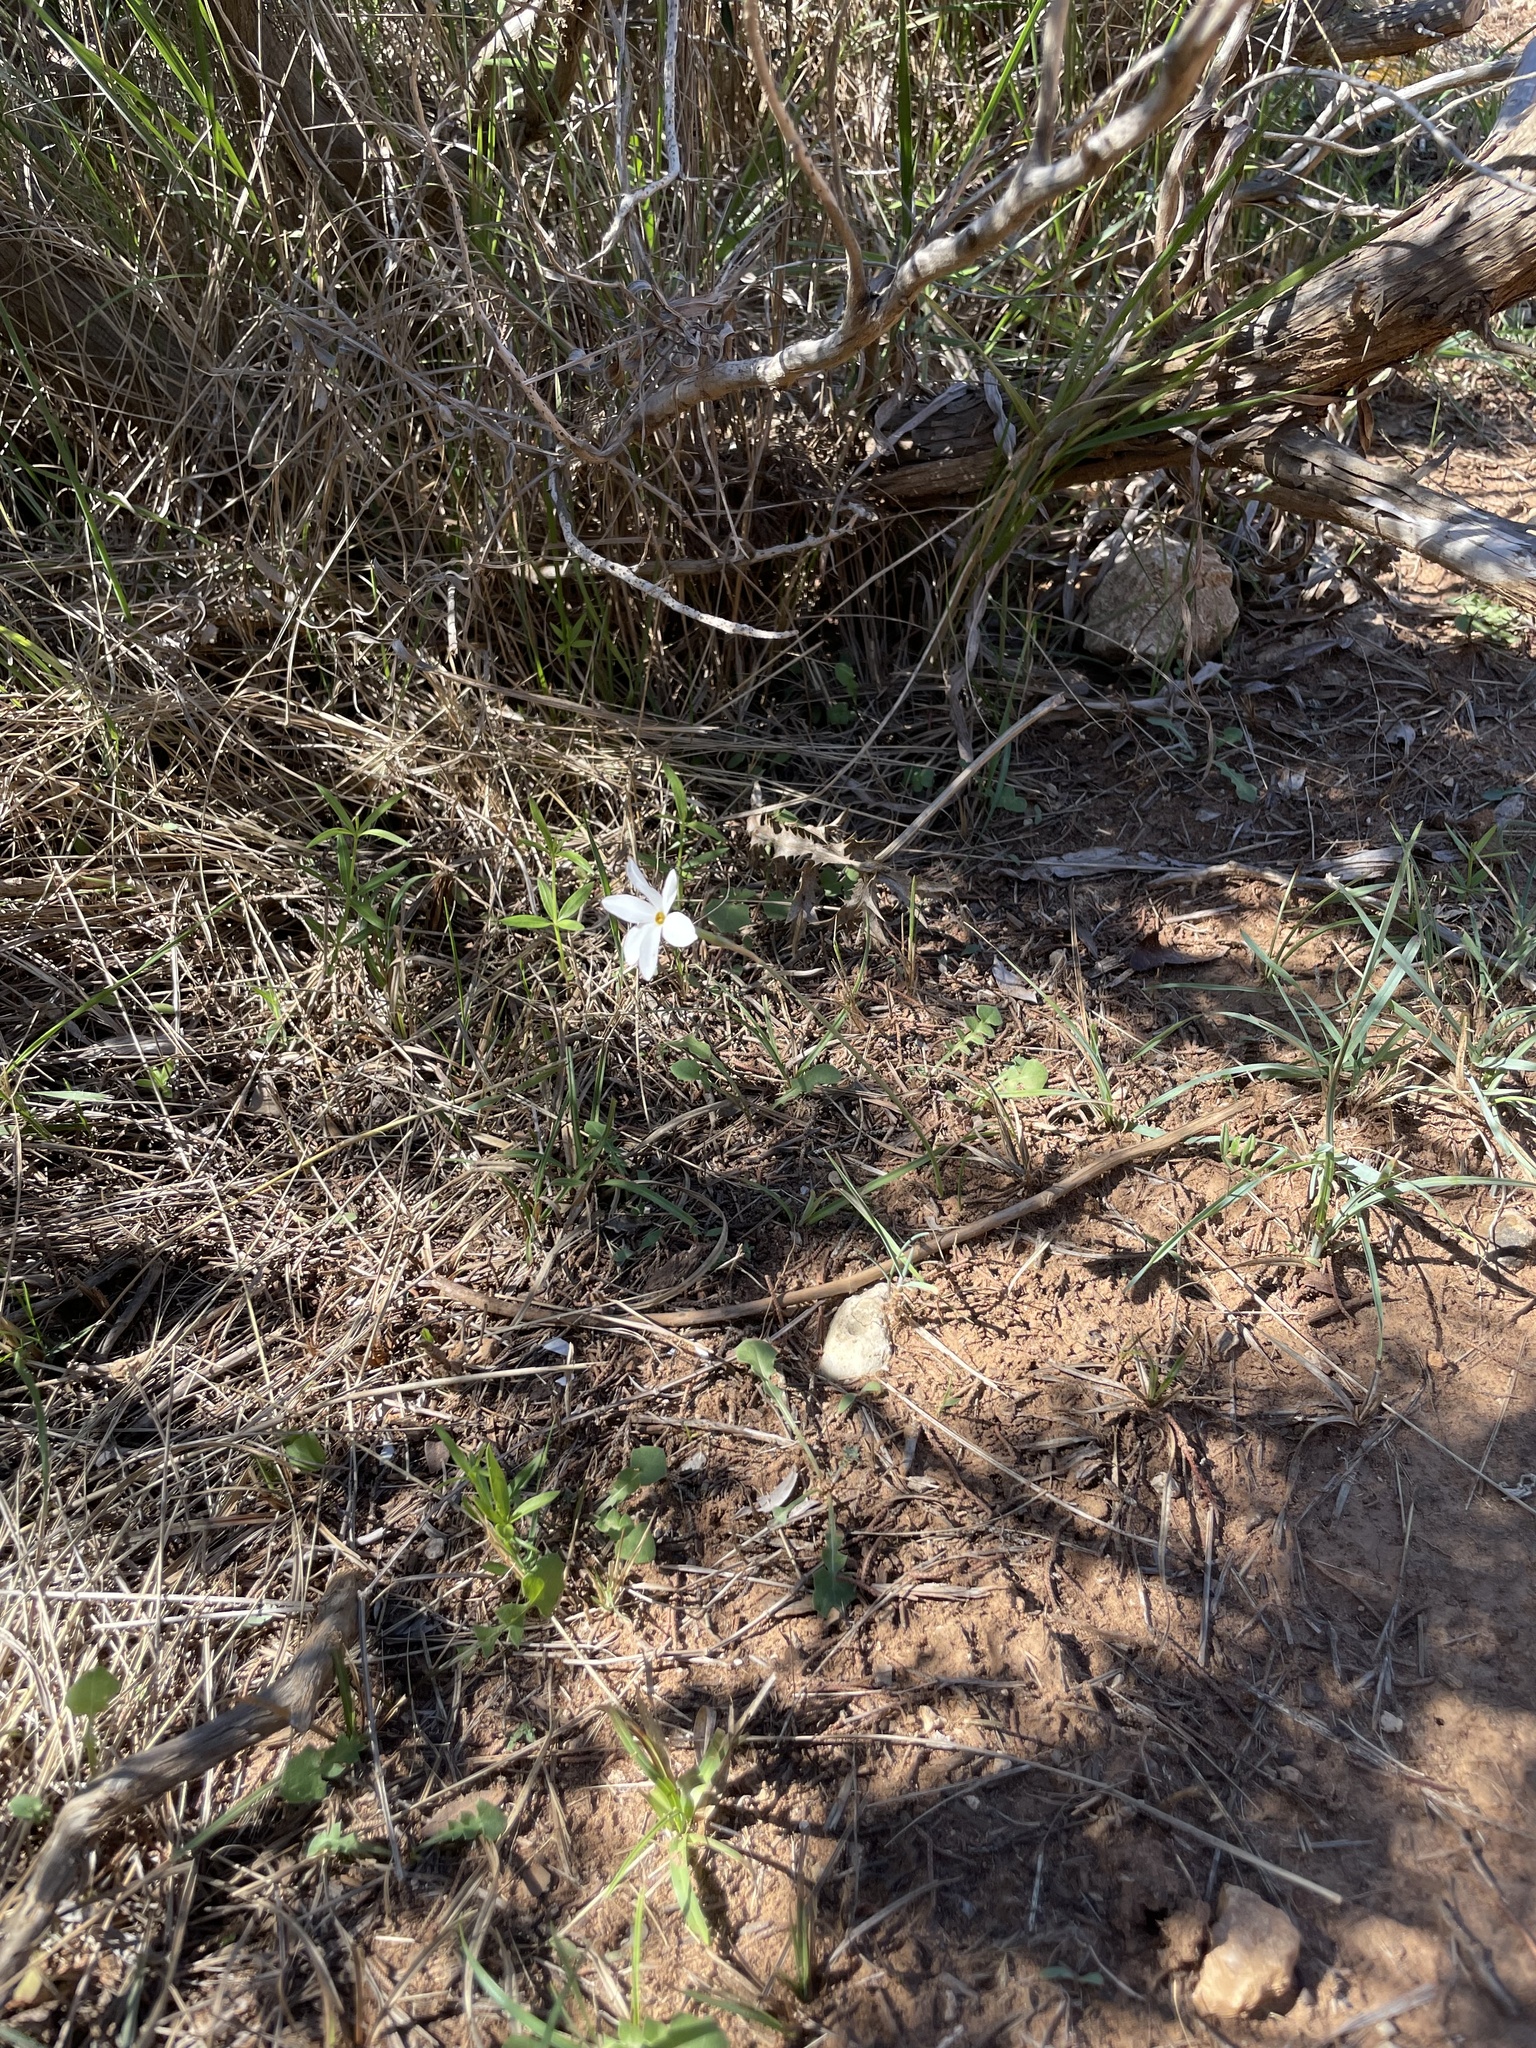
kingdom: Plantae
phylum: Tracheophyta
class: Liliopsida
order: Asparagales
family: Amaryllidaceae
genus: Narcissus
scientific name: Narcissus deficiens
